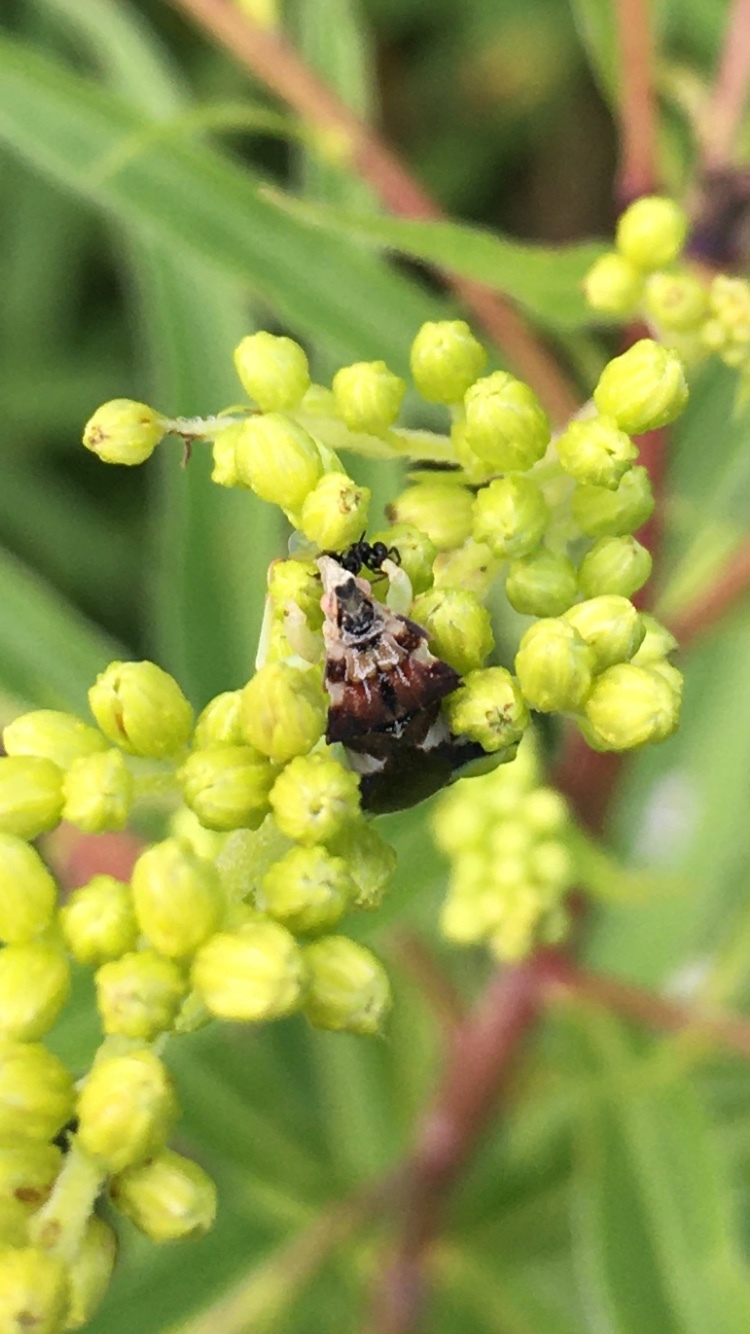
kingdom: Animalia
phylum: Arthropoda
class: Insecta
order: Hemiptera
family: Reduviidae
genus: Phymata
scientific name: Phymata americana
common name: Jagged ambush bug
